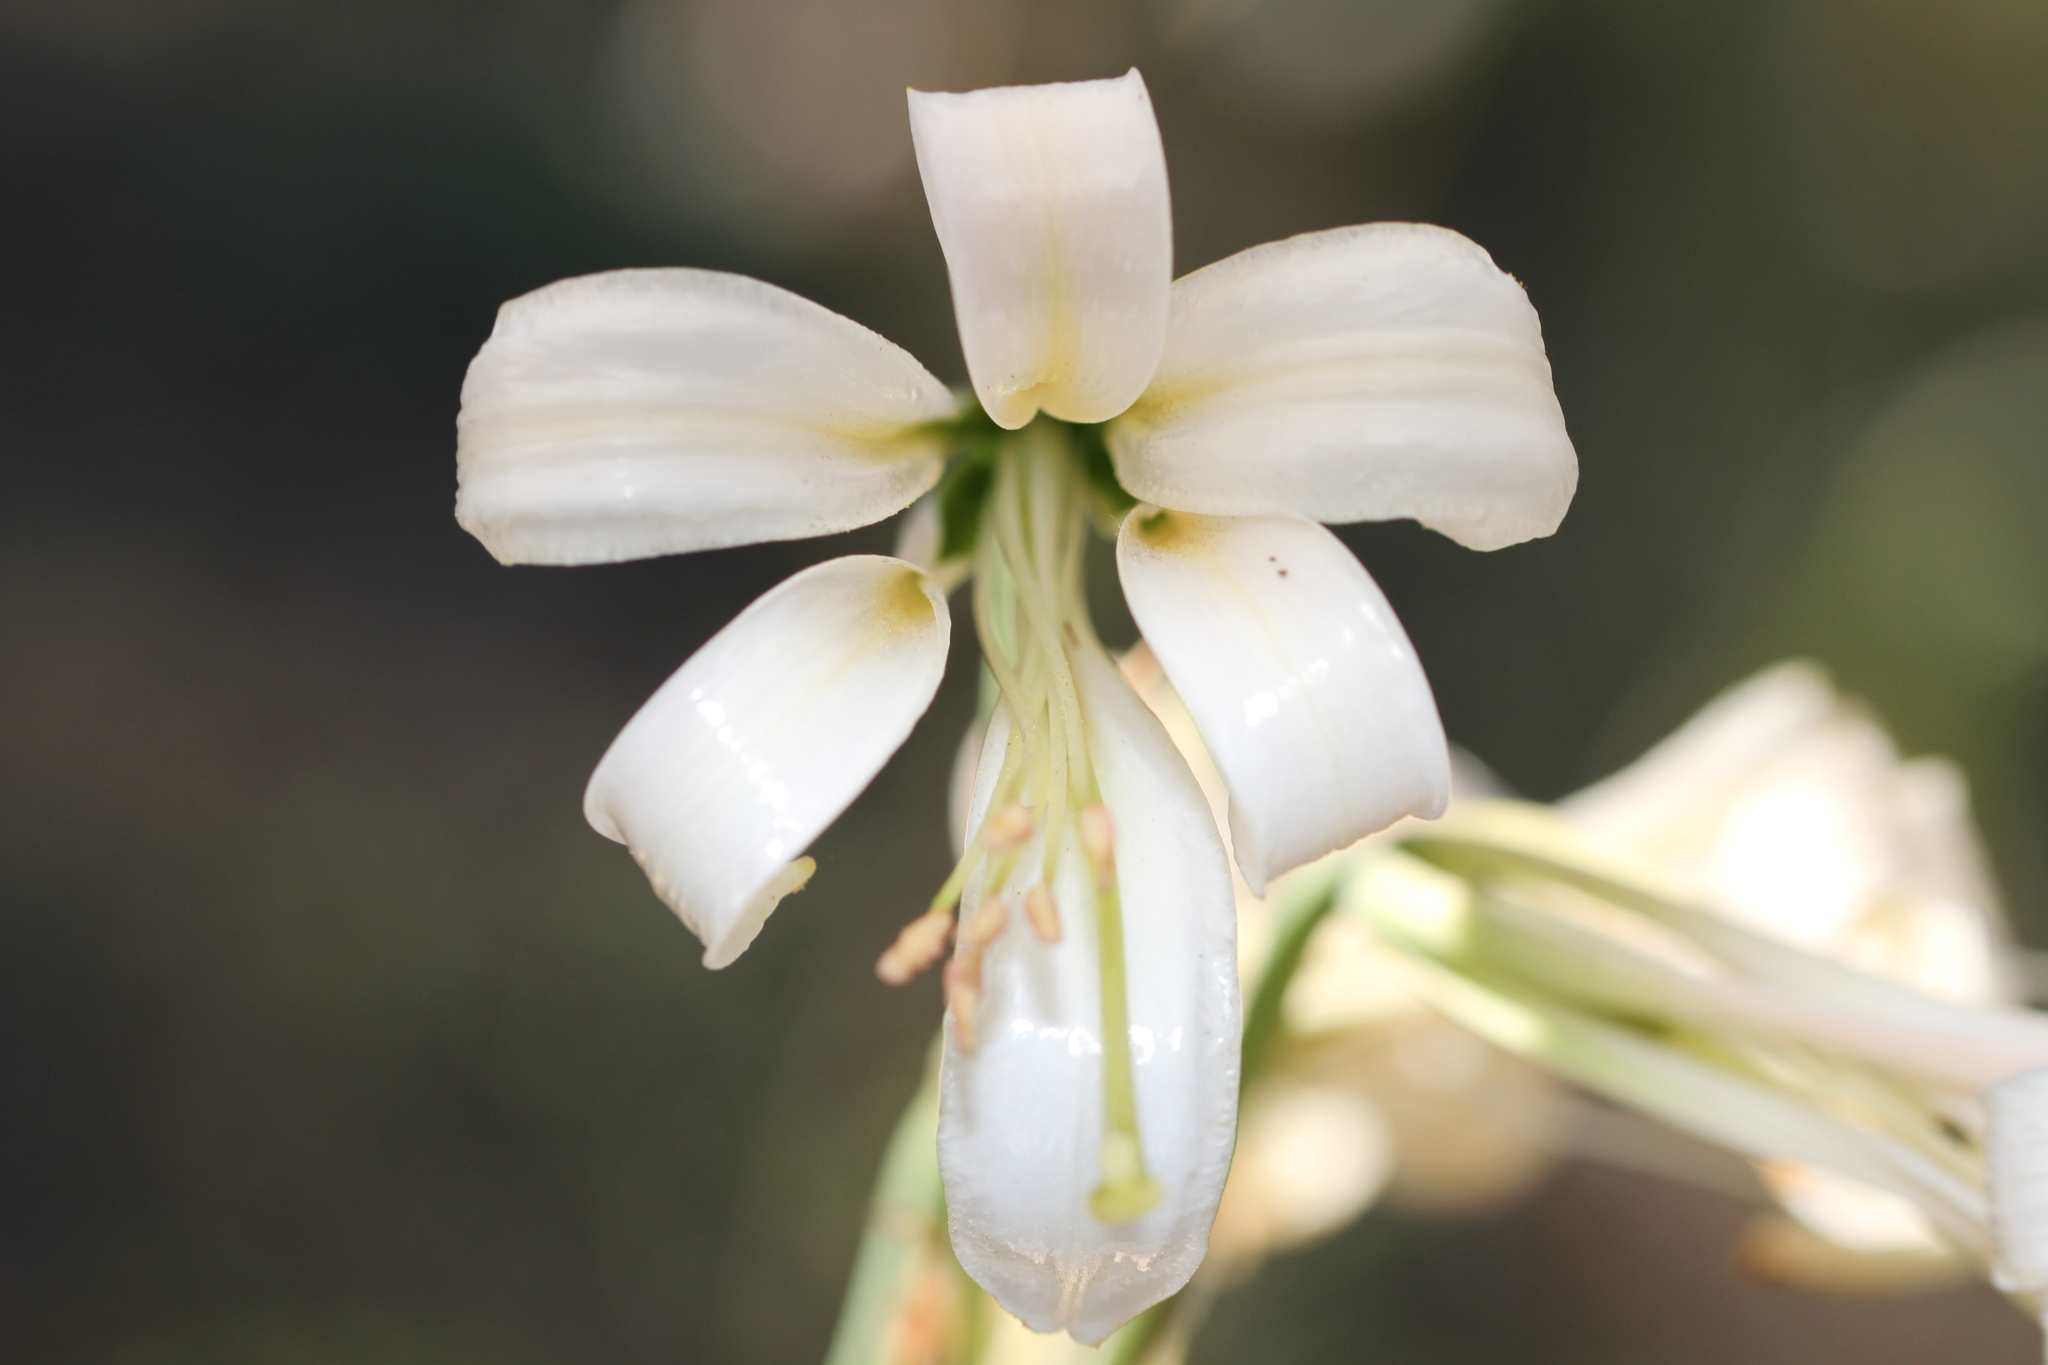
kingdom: Plantae
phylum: Tracheophyta
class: Liliopsida
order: Liliales
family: Liliaceae
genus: Lilium
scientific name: Lilium washingtonianum
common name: Washington lily
